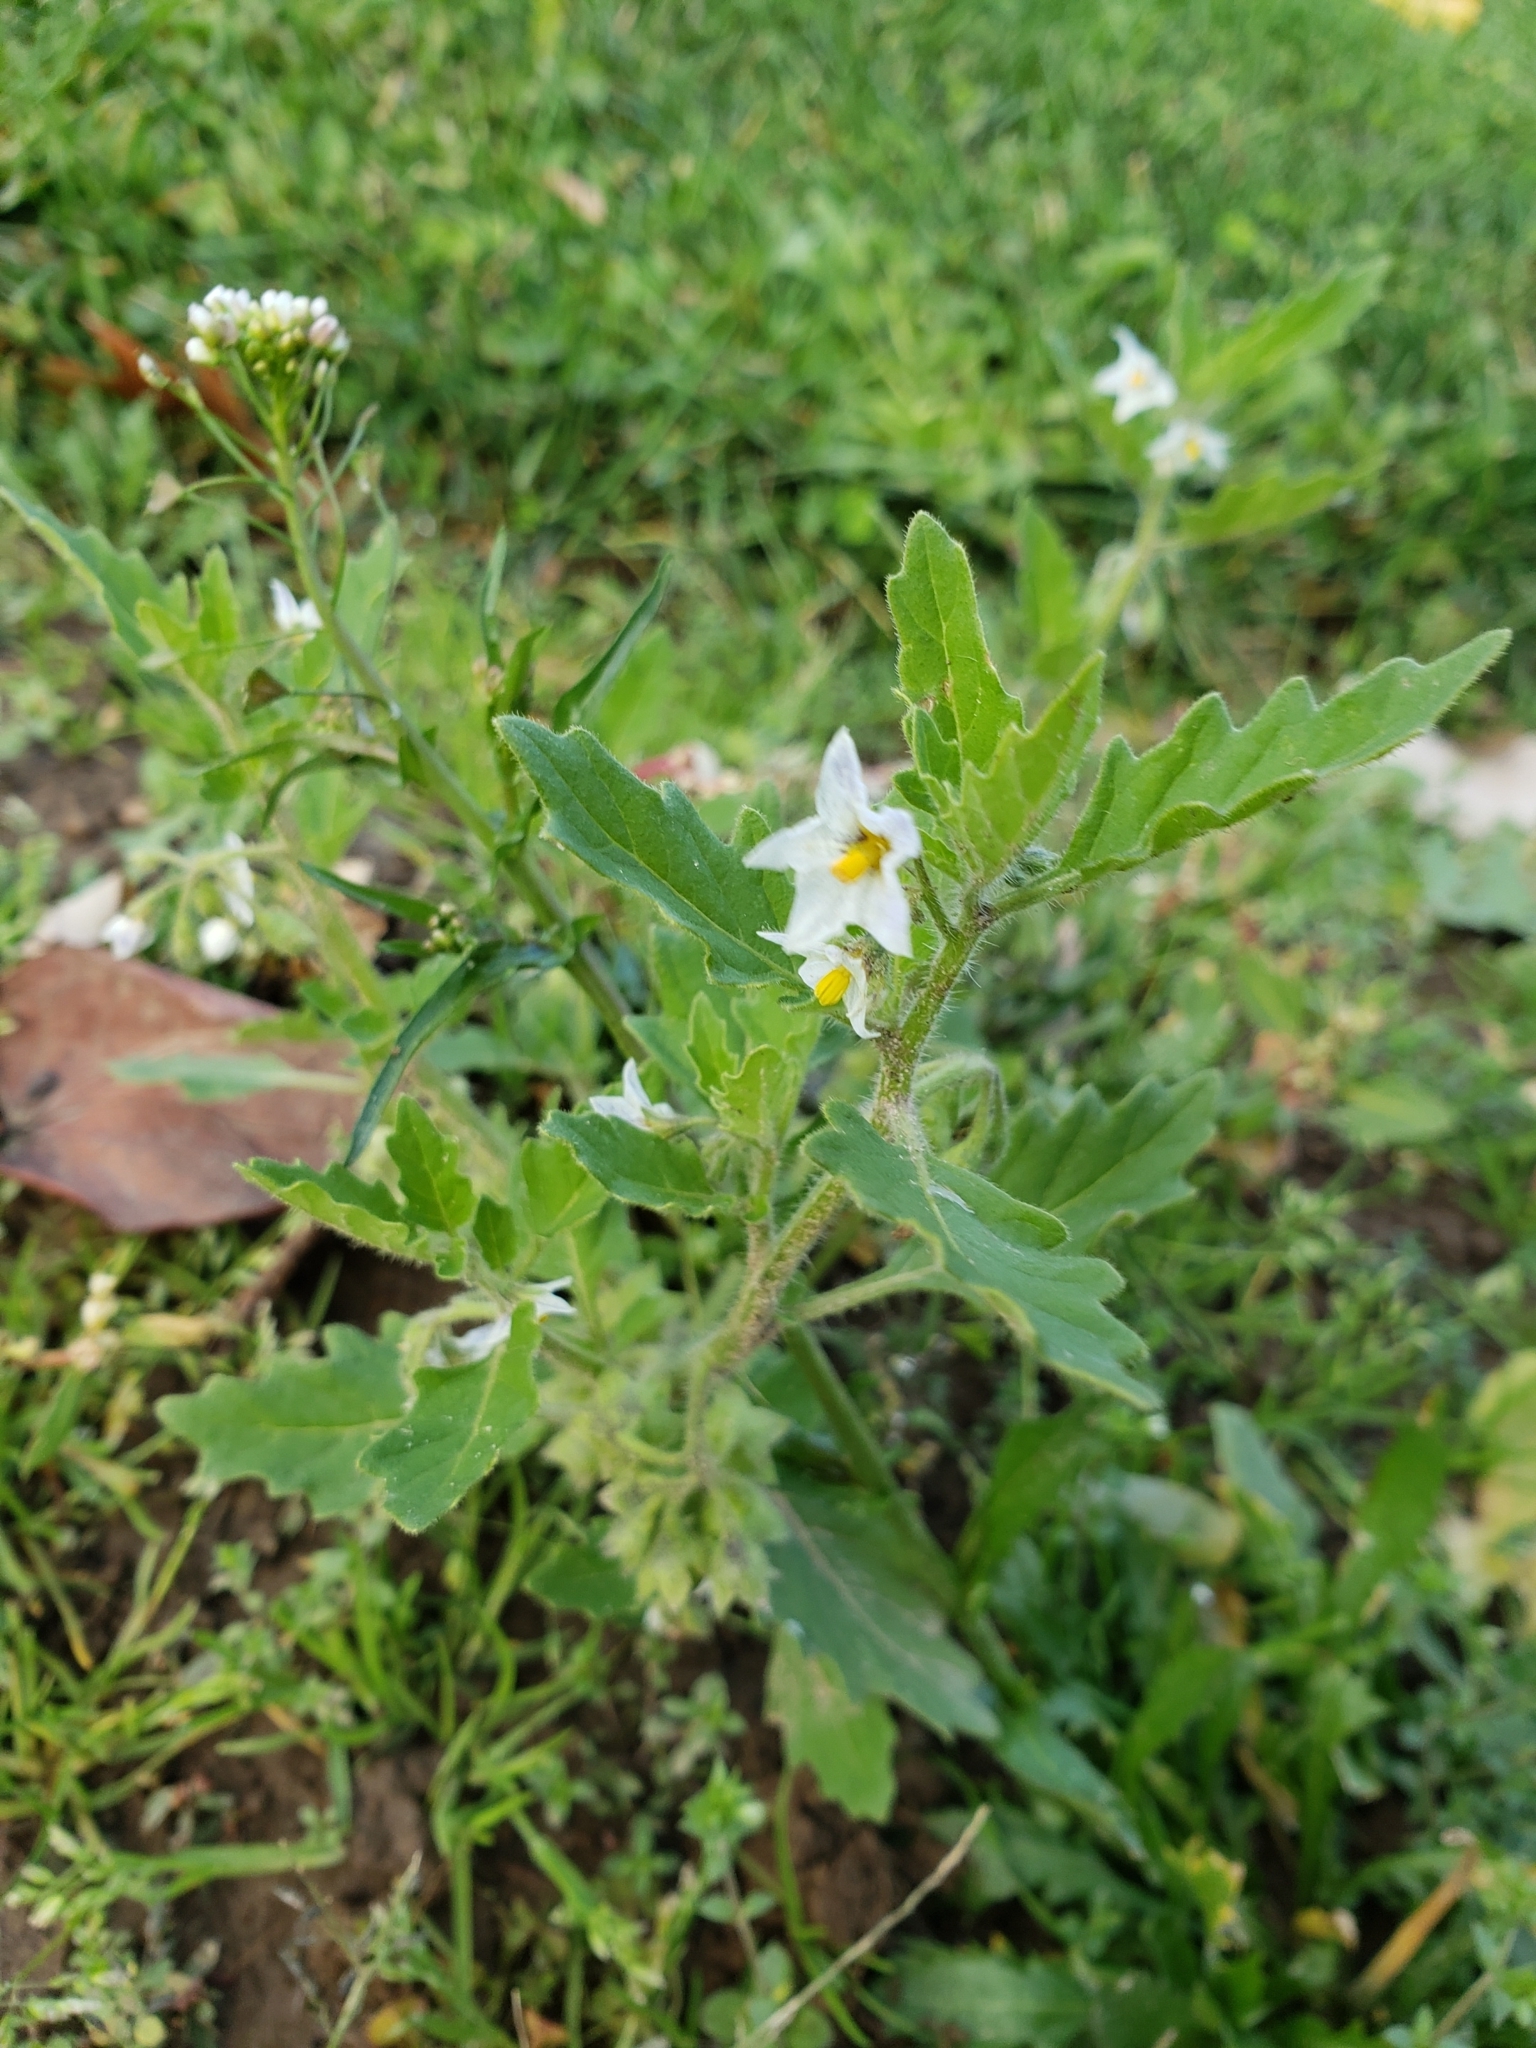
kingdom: Plantae
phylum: Tracheophyta
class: Magnoliopsida
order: Solanales
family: Solanaceae
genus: Solanum
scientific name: Solanum carolinense
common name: Horse-nettle
